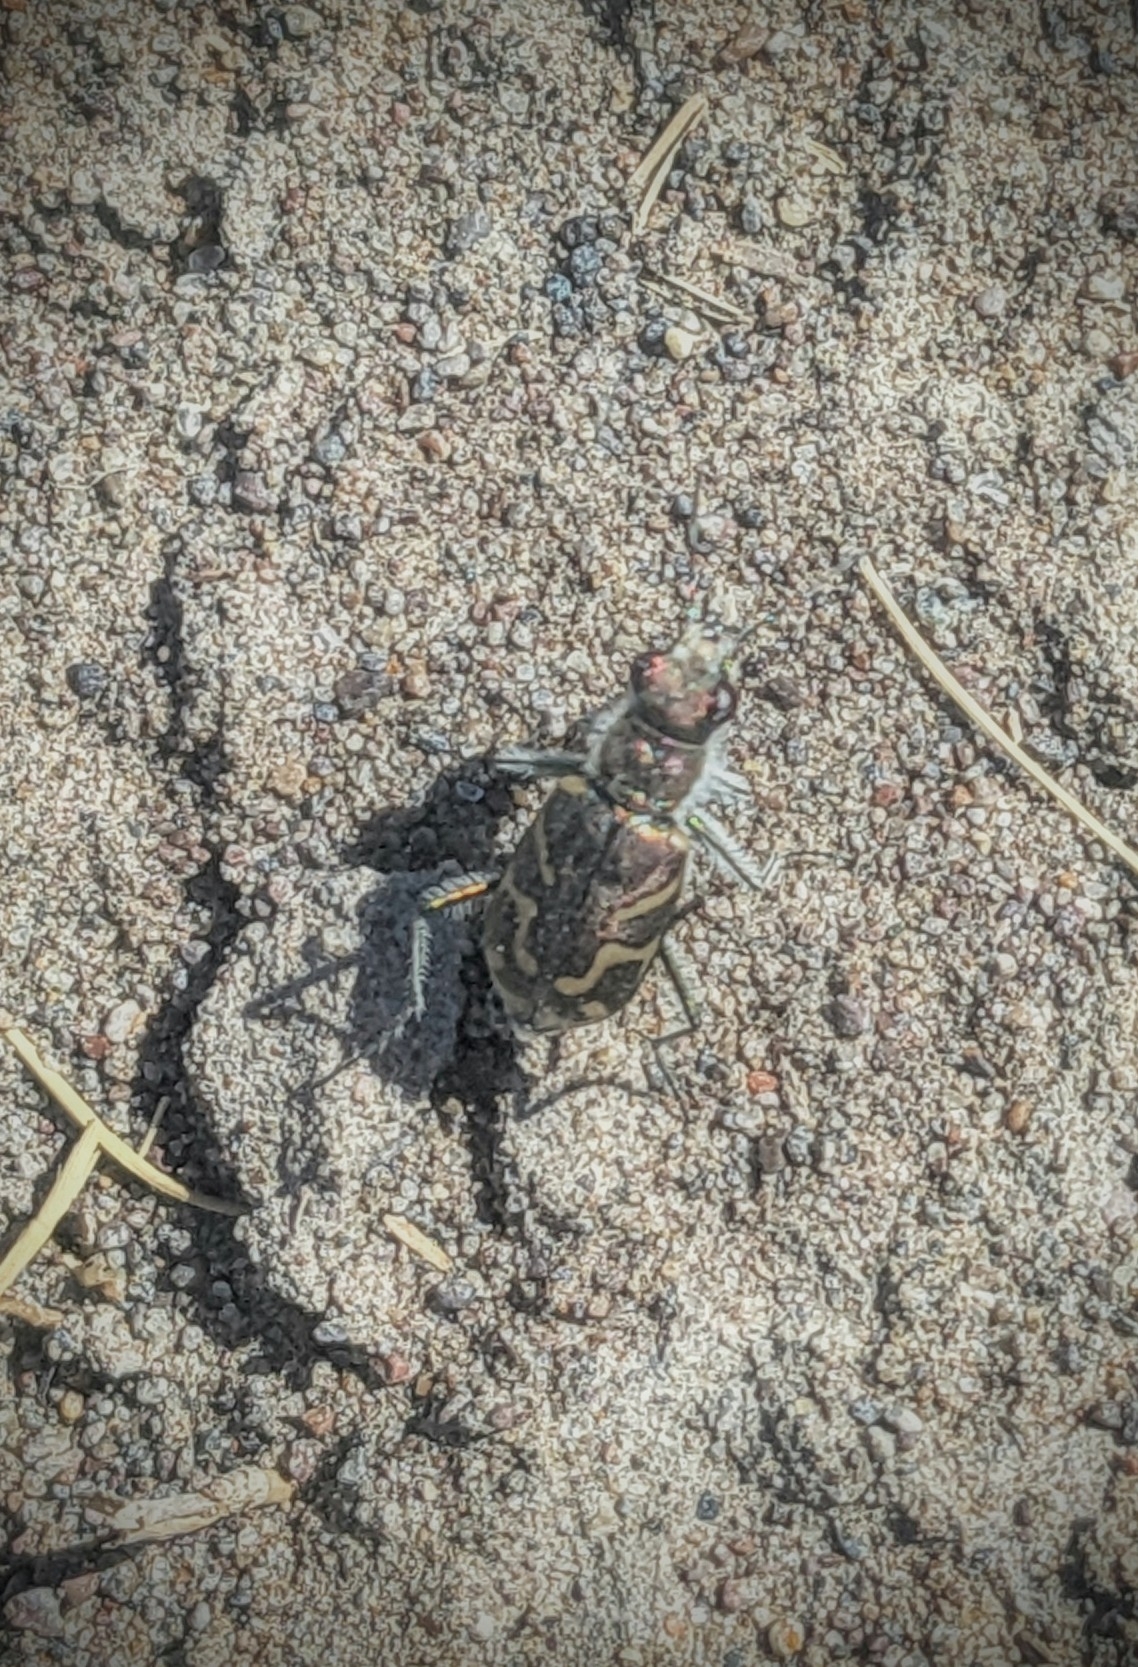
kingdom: Animalia
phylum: Arthropoda
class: Insecta
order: Coleoptera
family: Carabidae
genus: Cicindela
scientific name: Cicindela tranquebarica
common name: Oblique-lined tiger beetle
